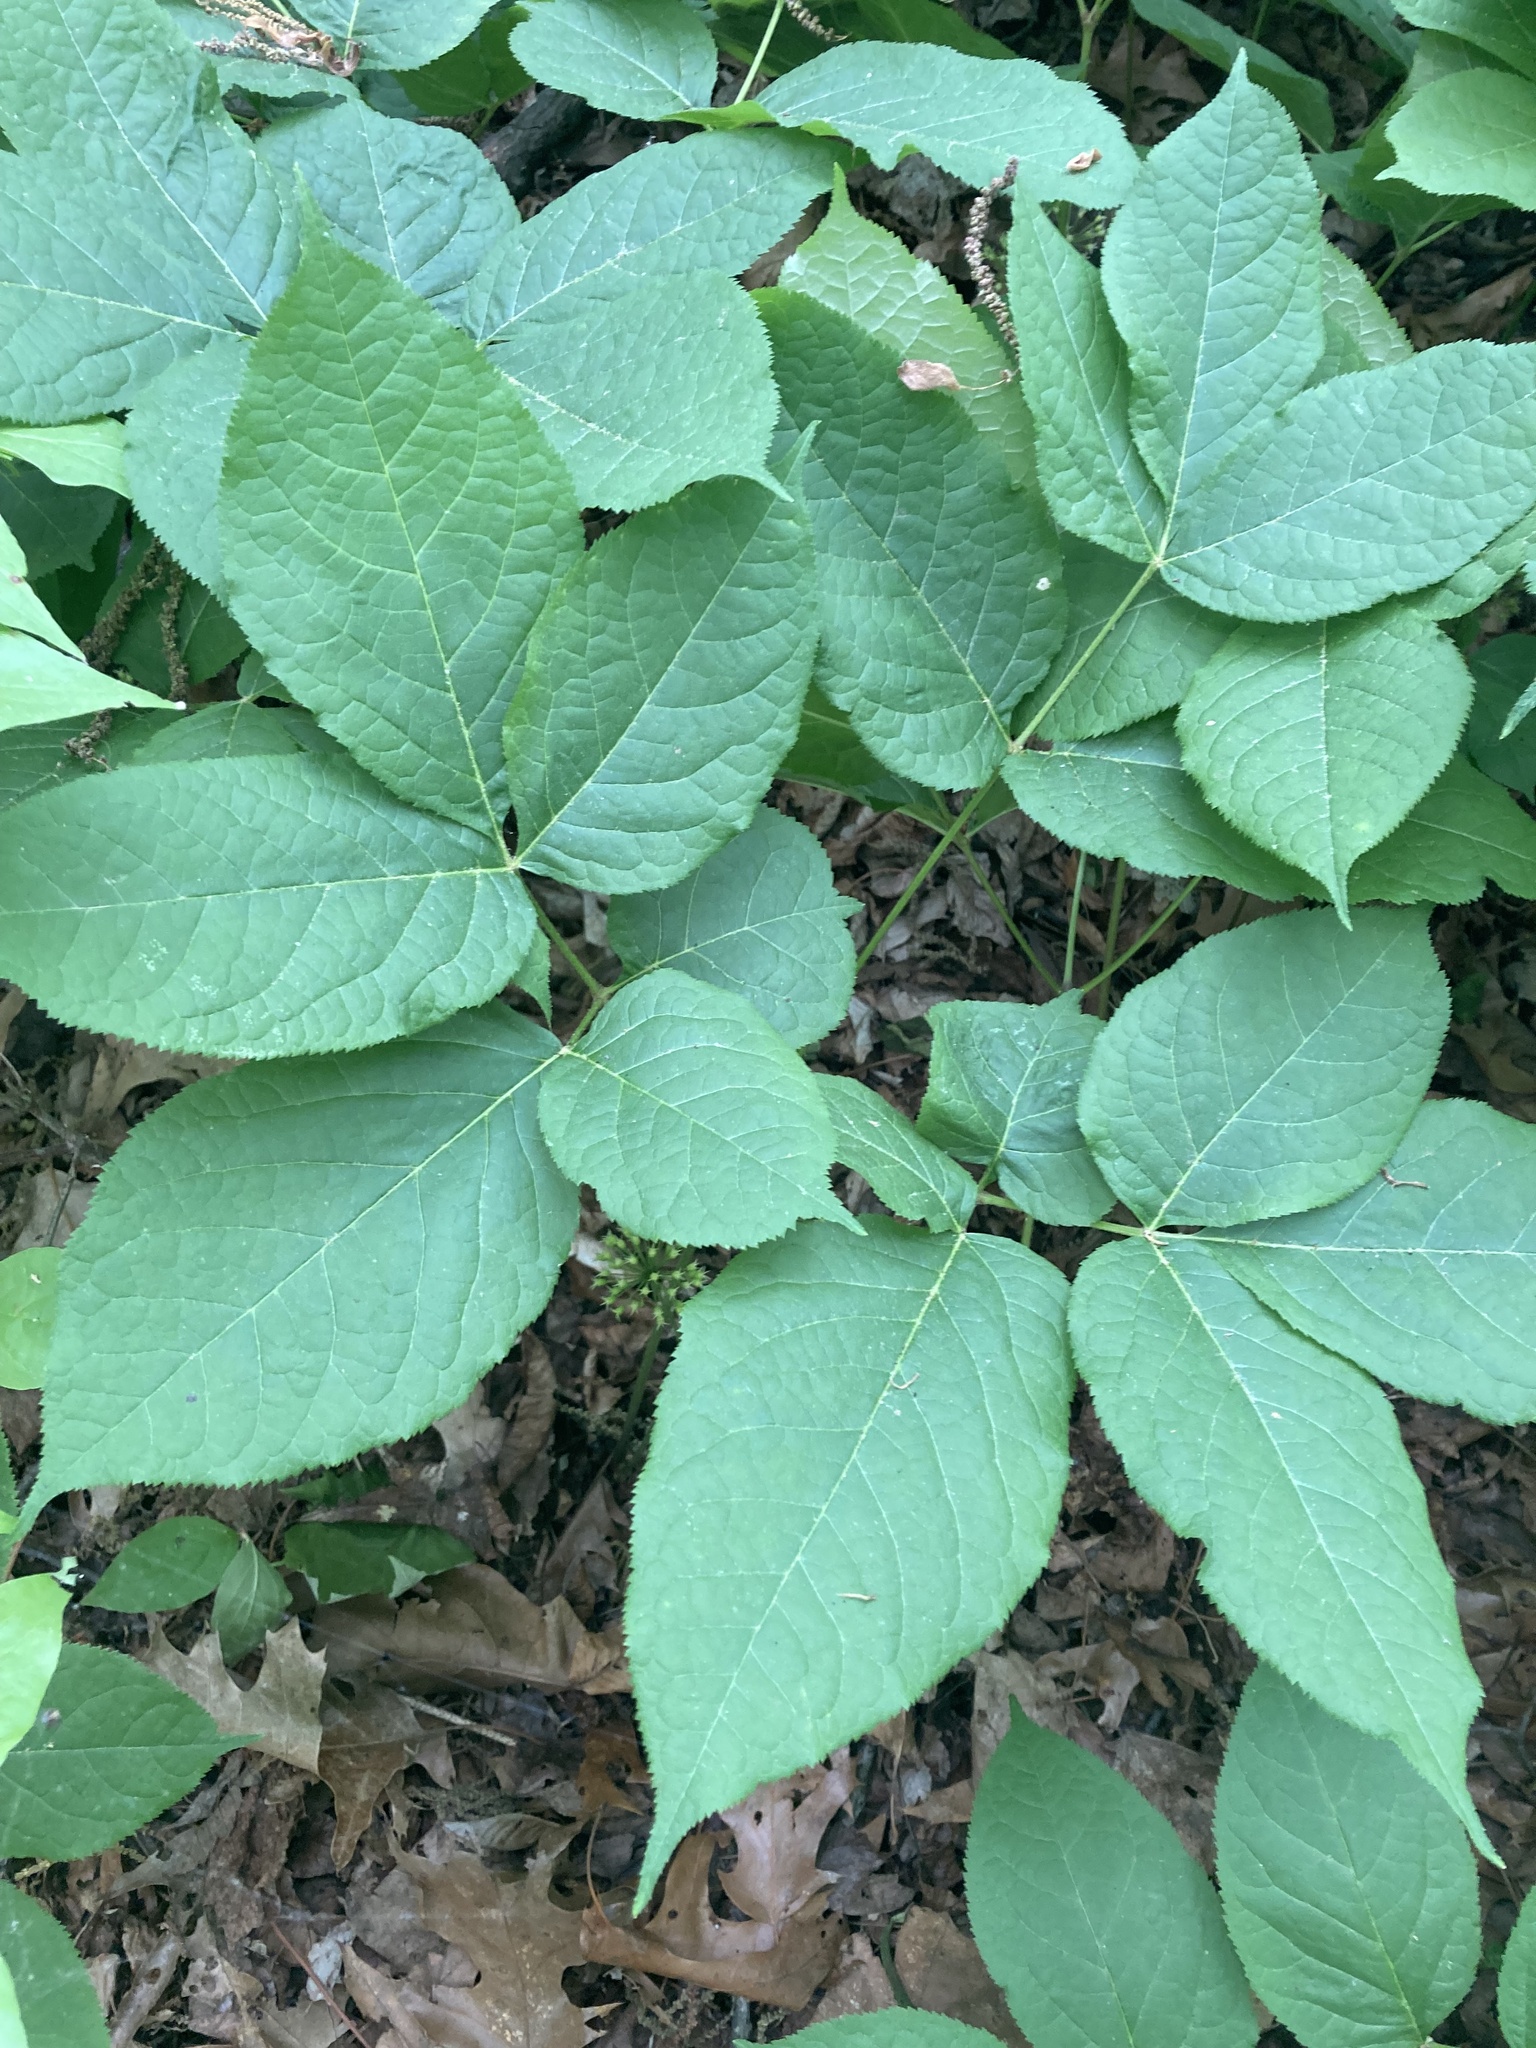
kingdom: Plantae
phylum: Tracheophyta
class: Magnoliopsida
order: Apiales
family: Araliaceae
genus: Aralia
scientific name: Aralia nudicaulis
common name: Wild sarsaparilla
